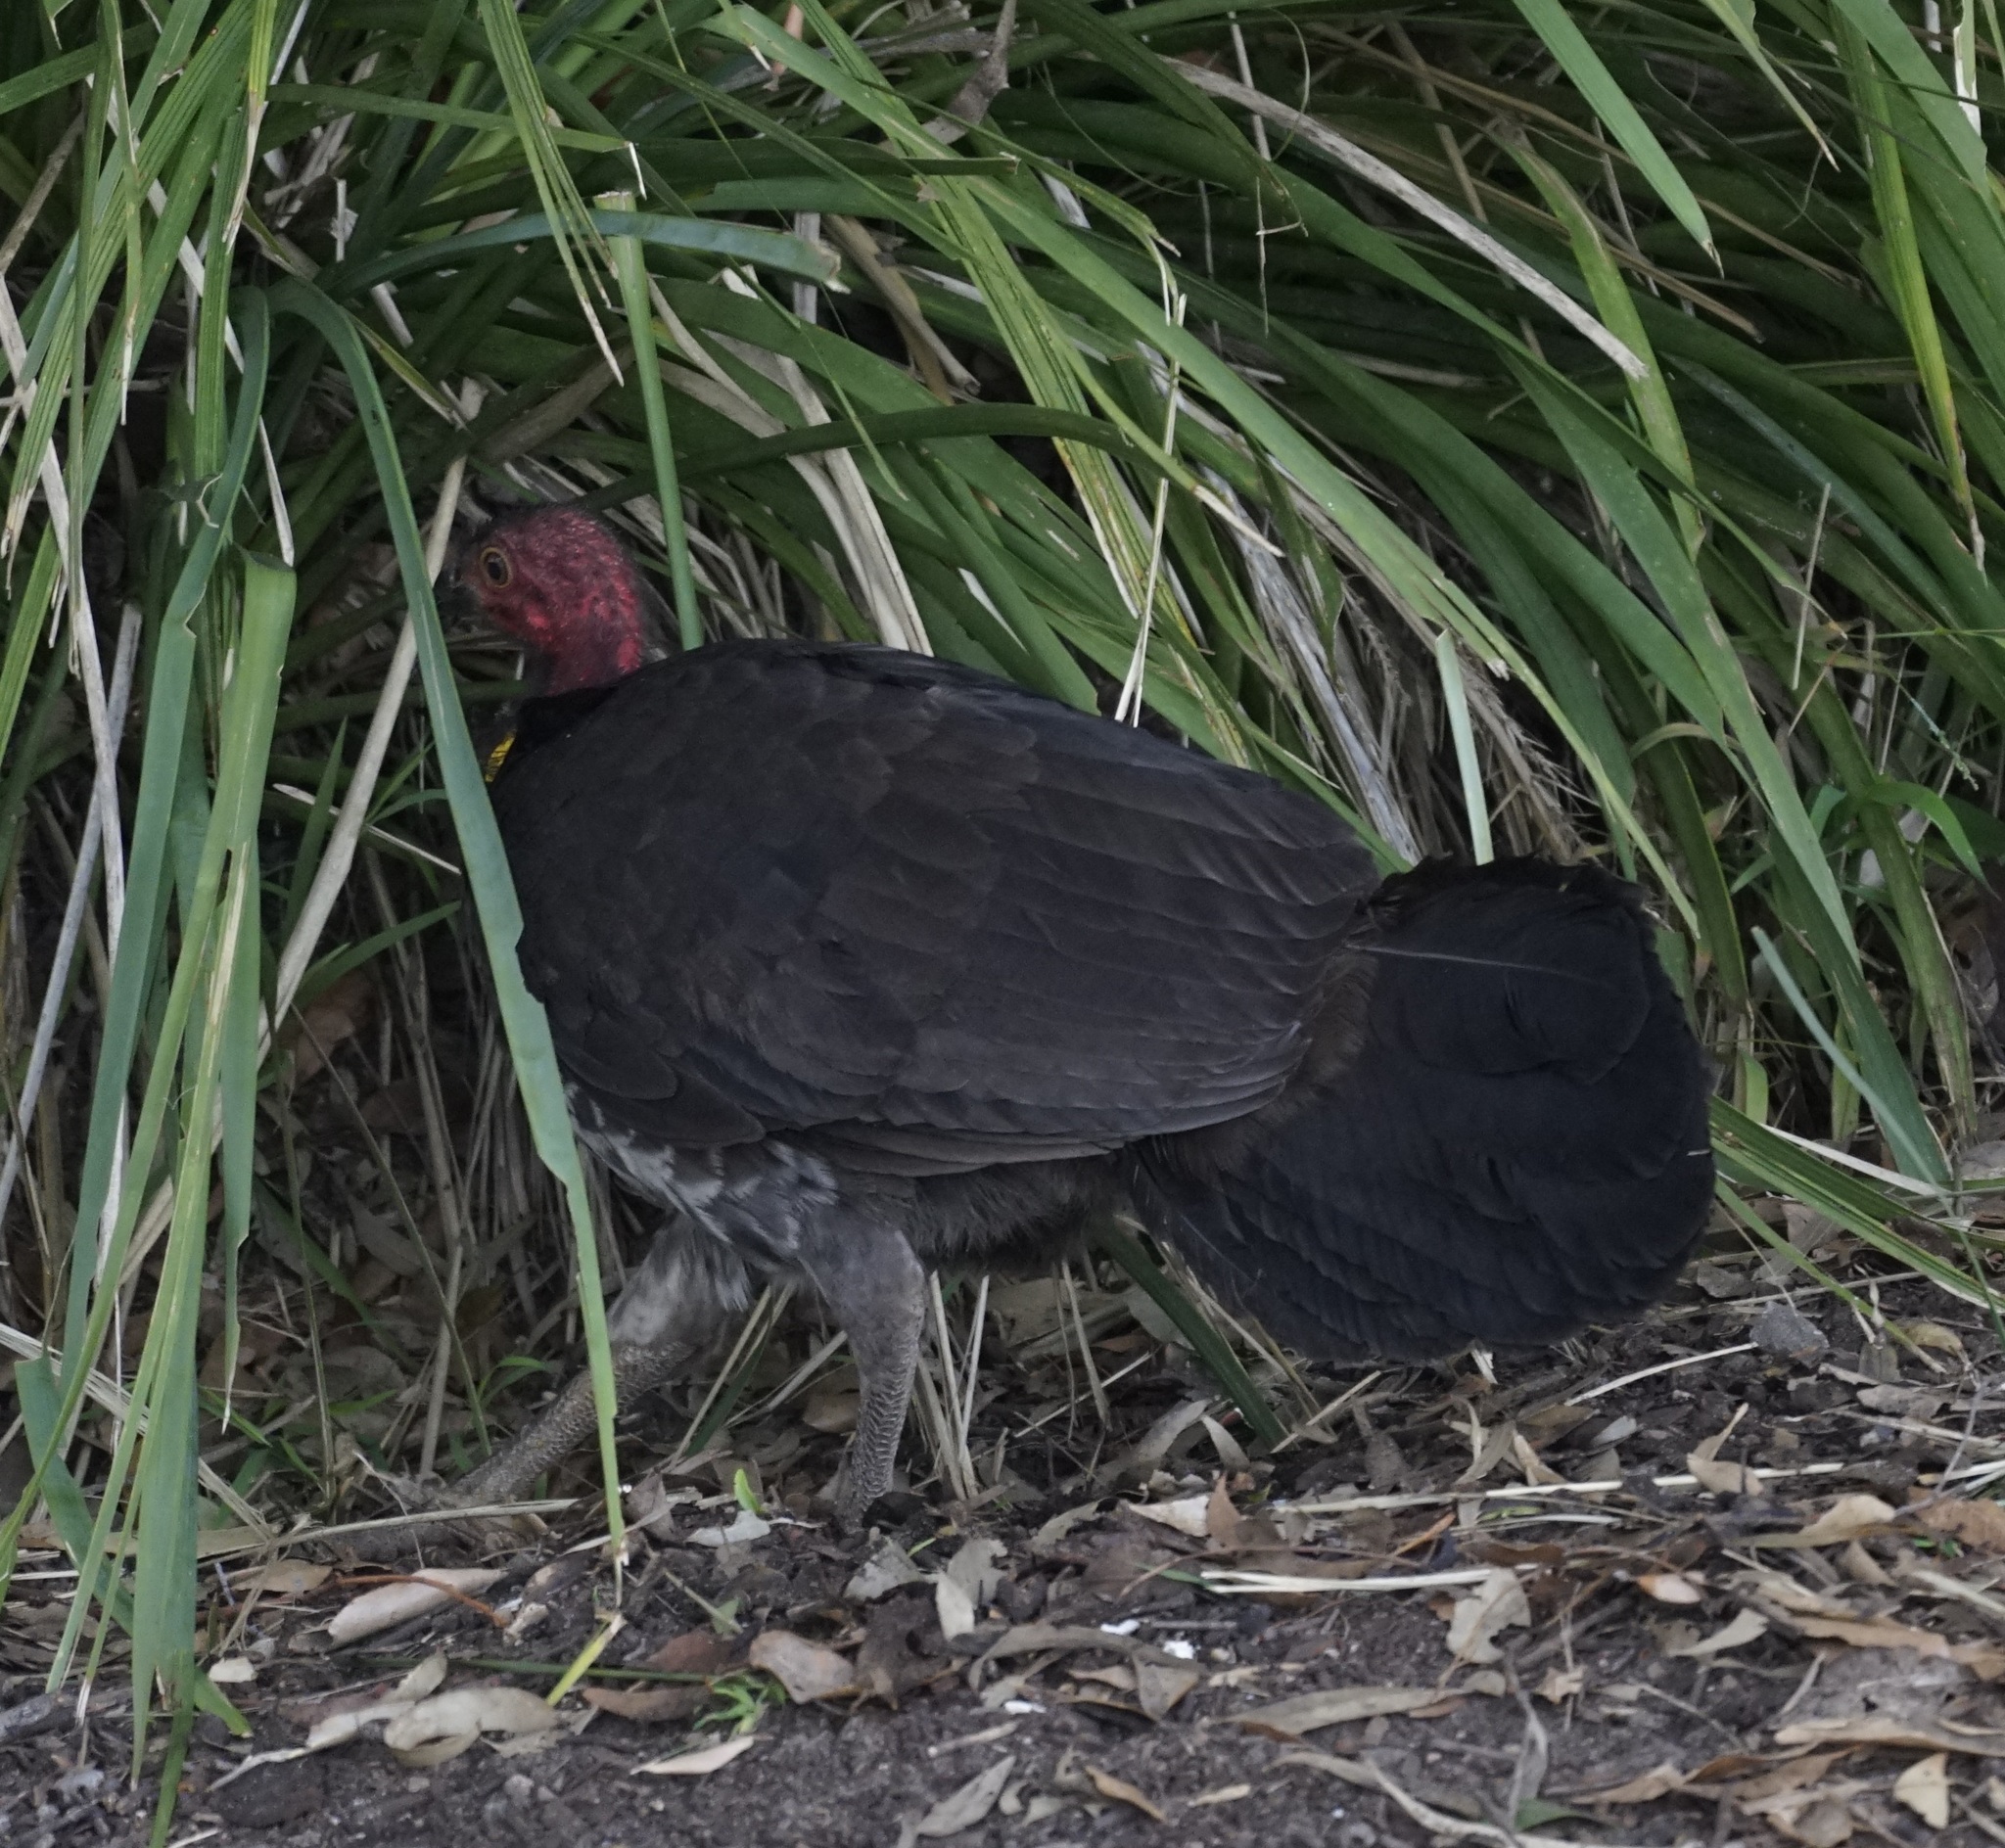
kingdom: Animalia
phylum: Chordata
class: Aves
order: Galliformes
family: Megapodiidae
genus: Alectura
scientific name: Alectura lathami
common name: Australian brushturkey
